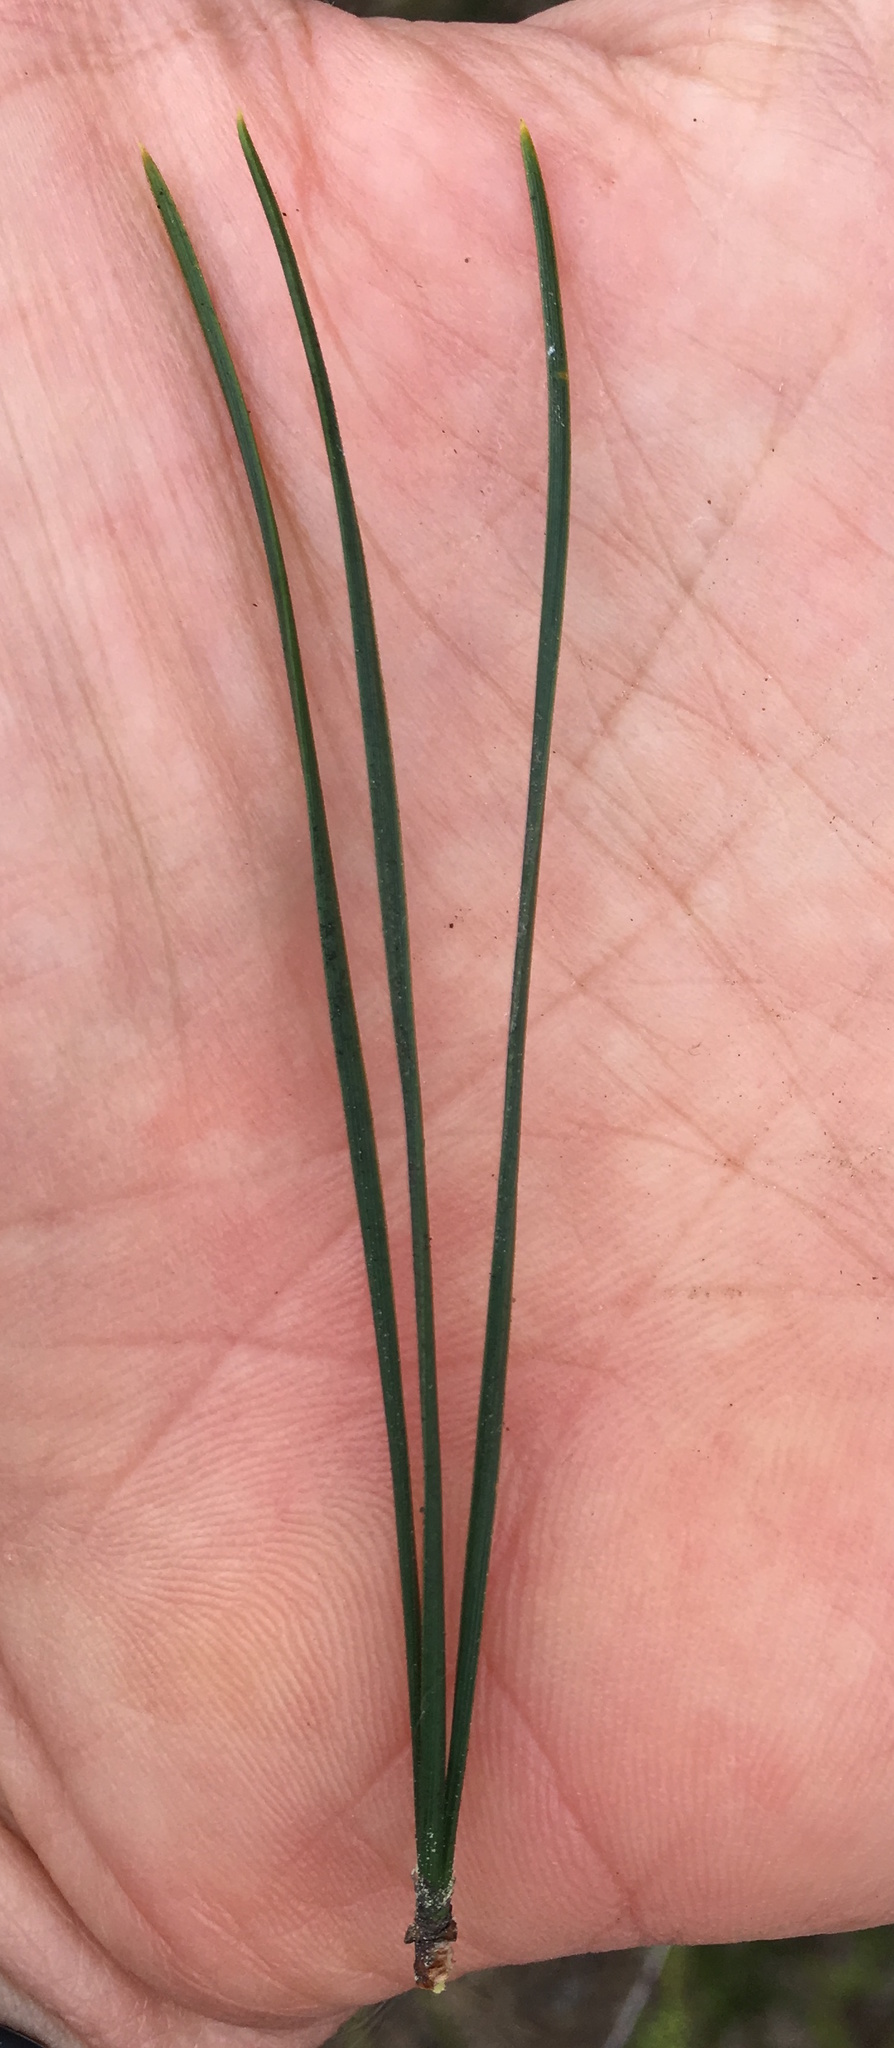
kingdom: Plantae
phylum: Tracheophyta
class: Pinopsida
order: Pinales
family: Pinaceae
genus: Pinus
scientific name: Pinus radiata
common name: Monterey pine
